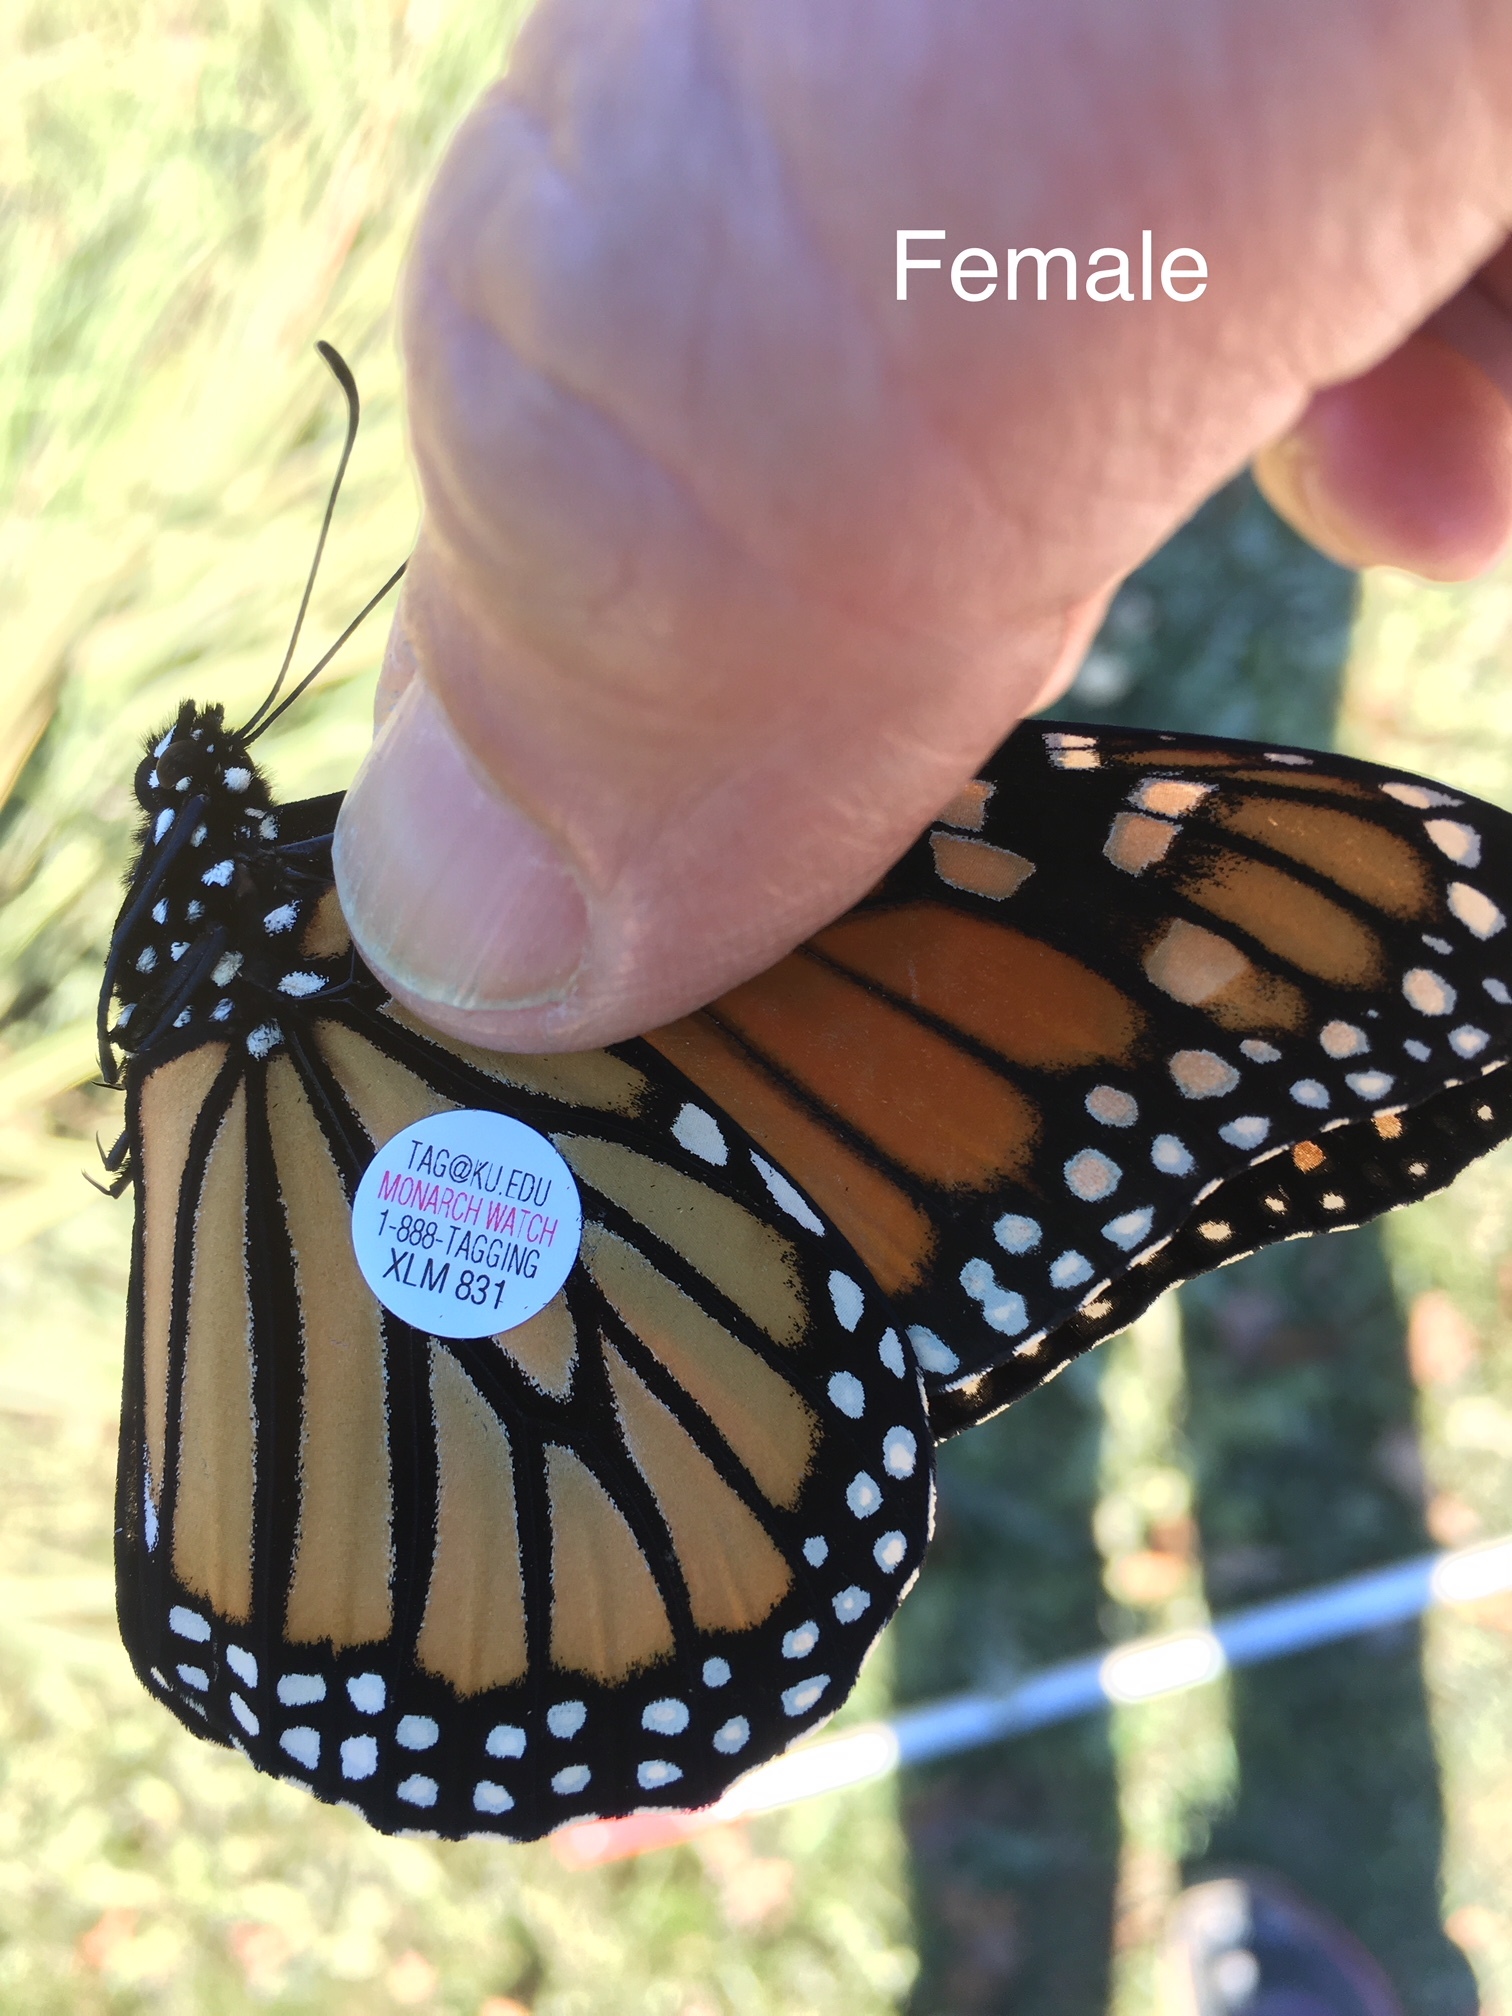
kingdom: Animalia
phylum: Arthropoda
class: Insecta
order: Lepidoptera
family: Nymphalidae
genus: Danaus
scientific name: Danaus plexippus
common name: Monarch
